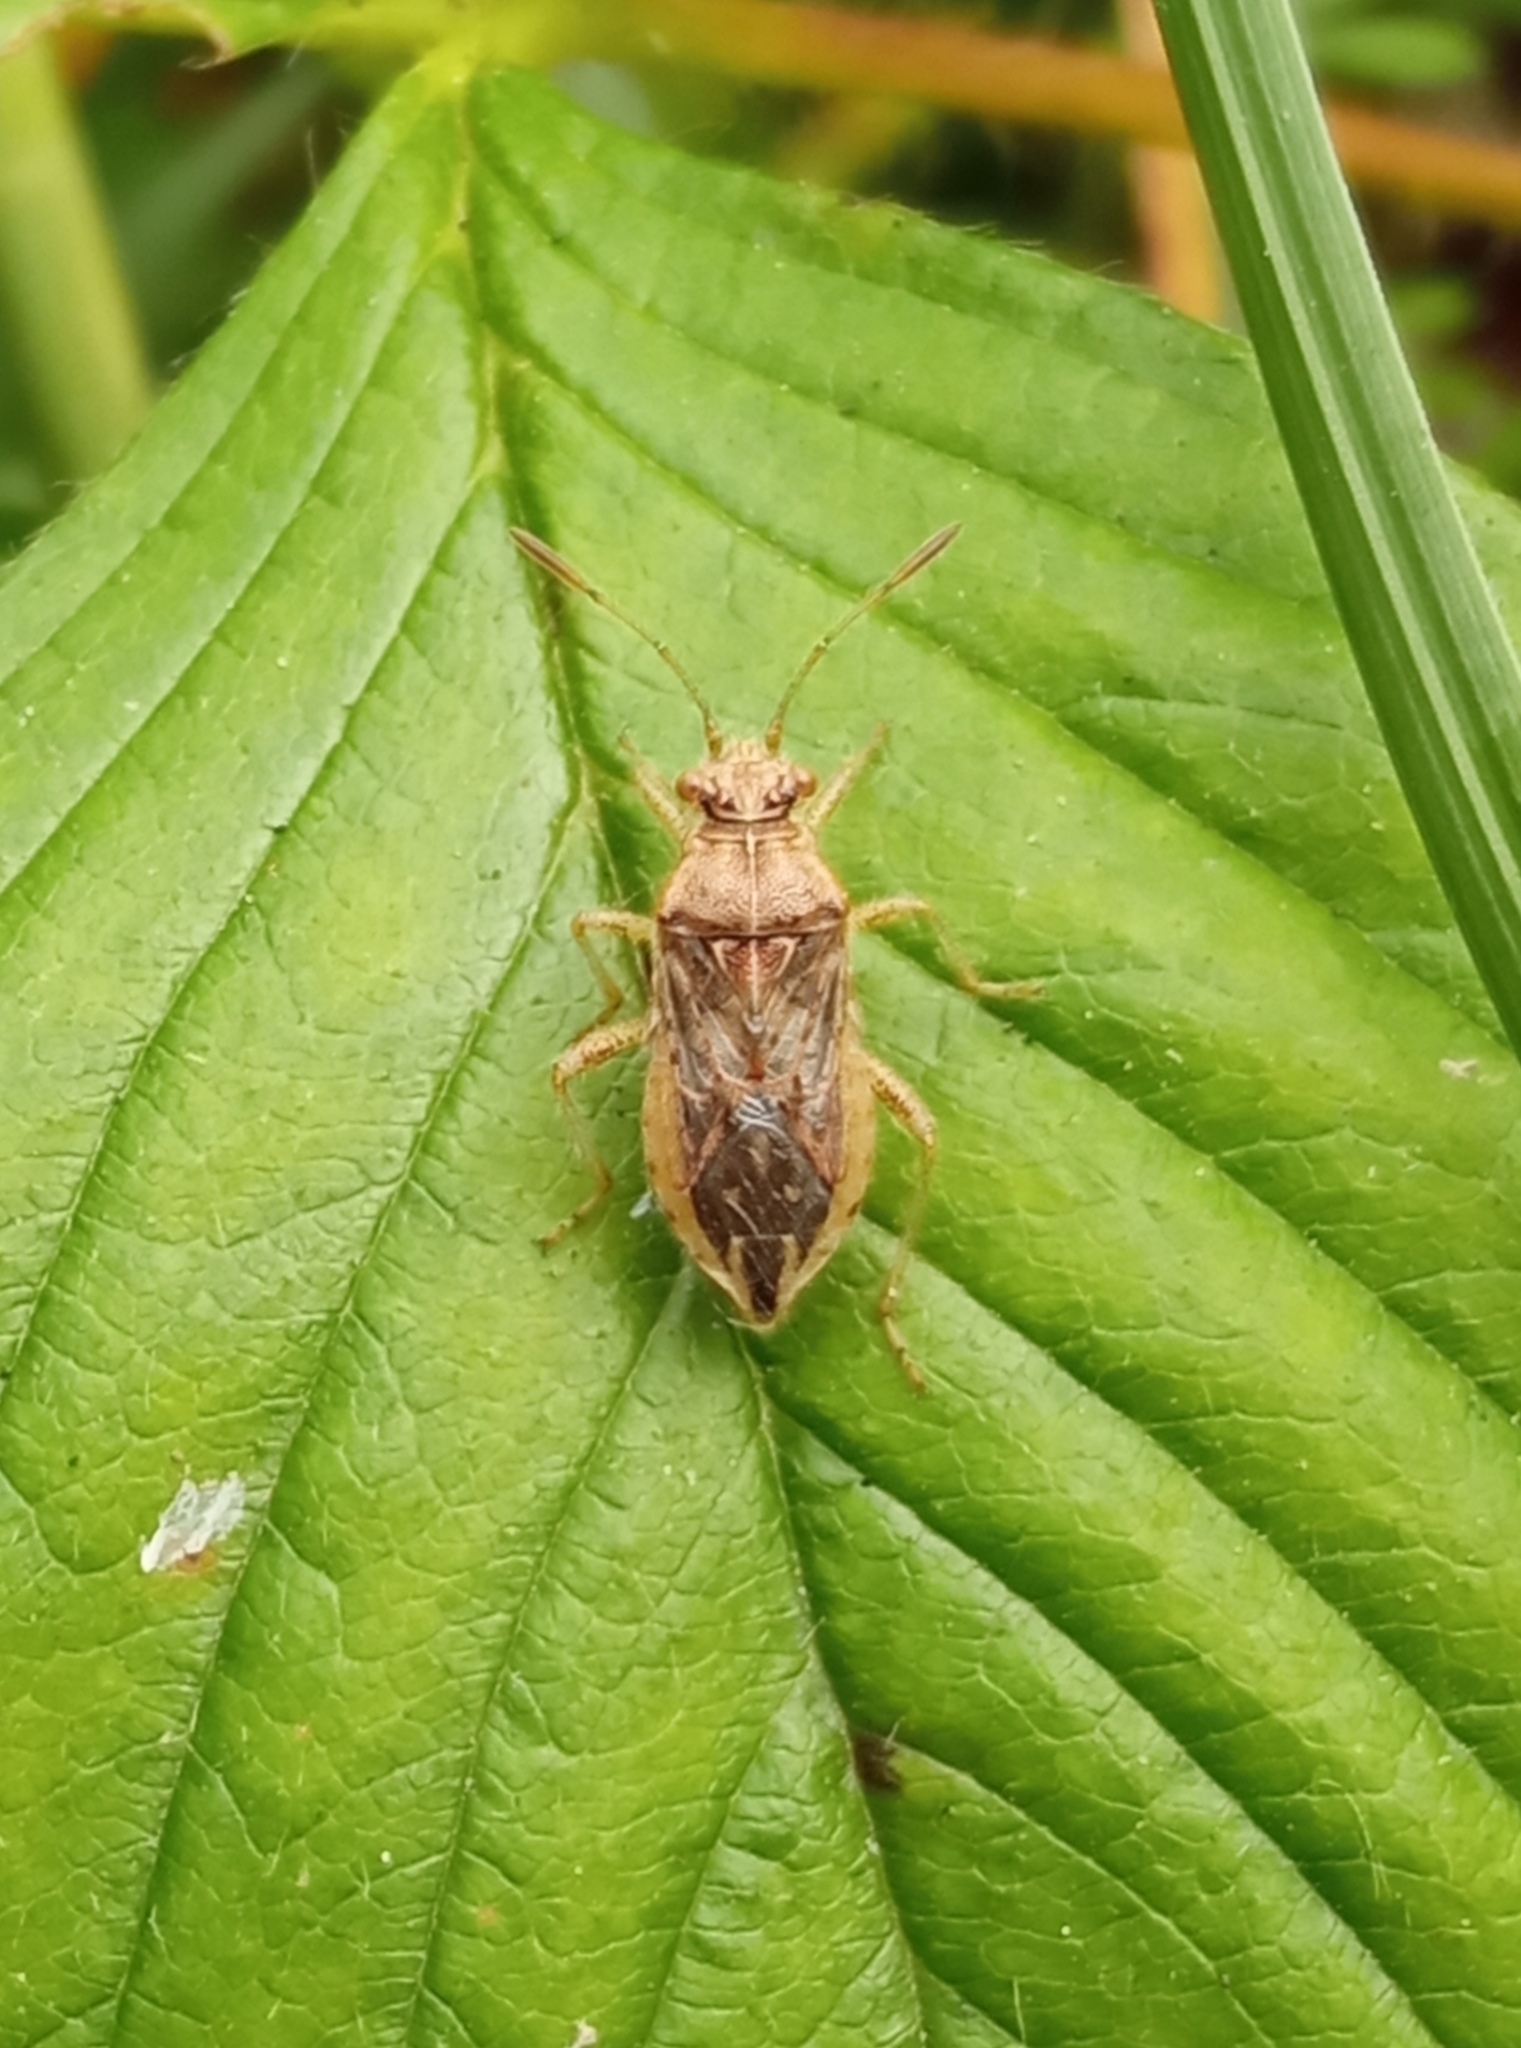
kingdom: Animalia
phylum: Arthropoda
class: Insecta
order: Hemiptera
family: Rhopalidae
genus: Rhopalus
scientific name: Rhopalus parumpunctatus
